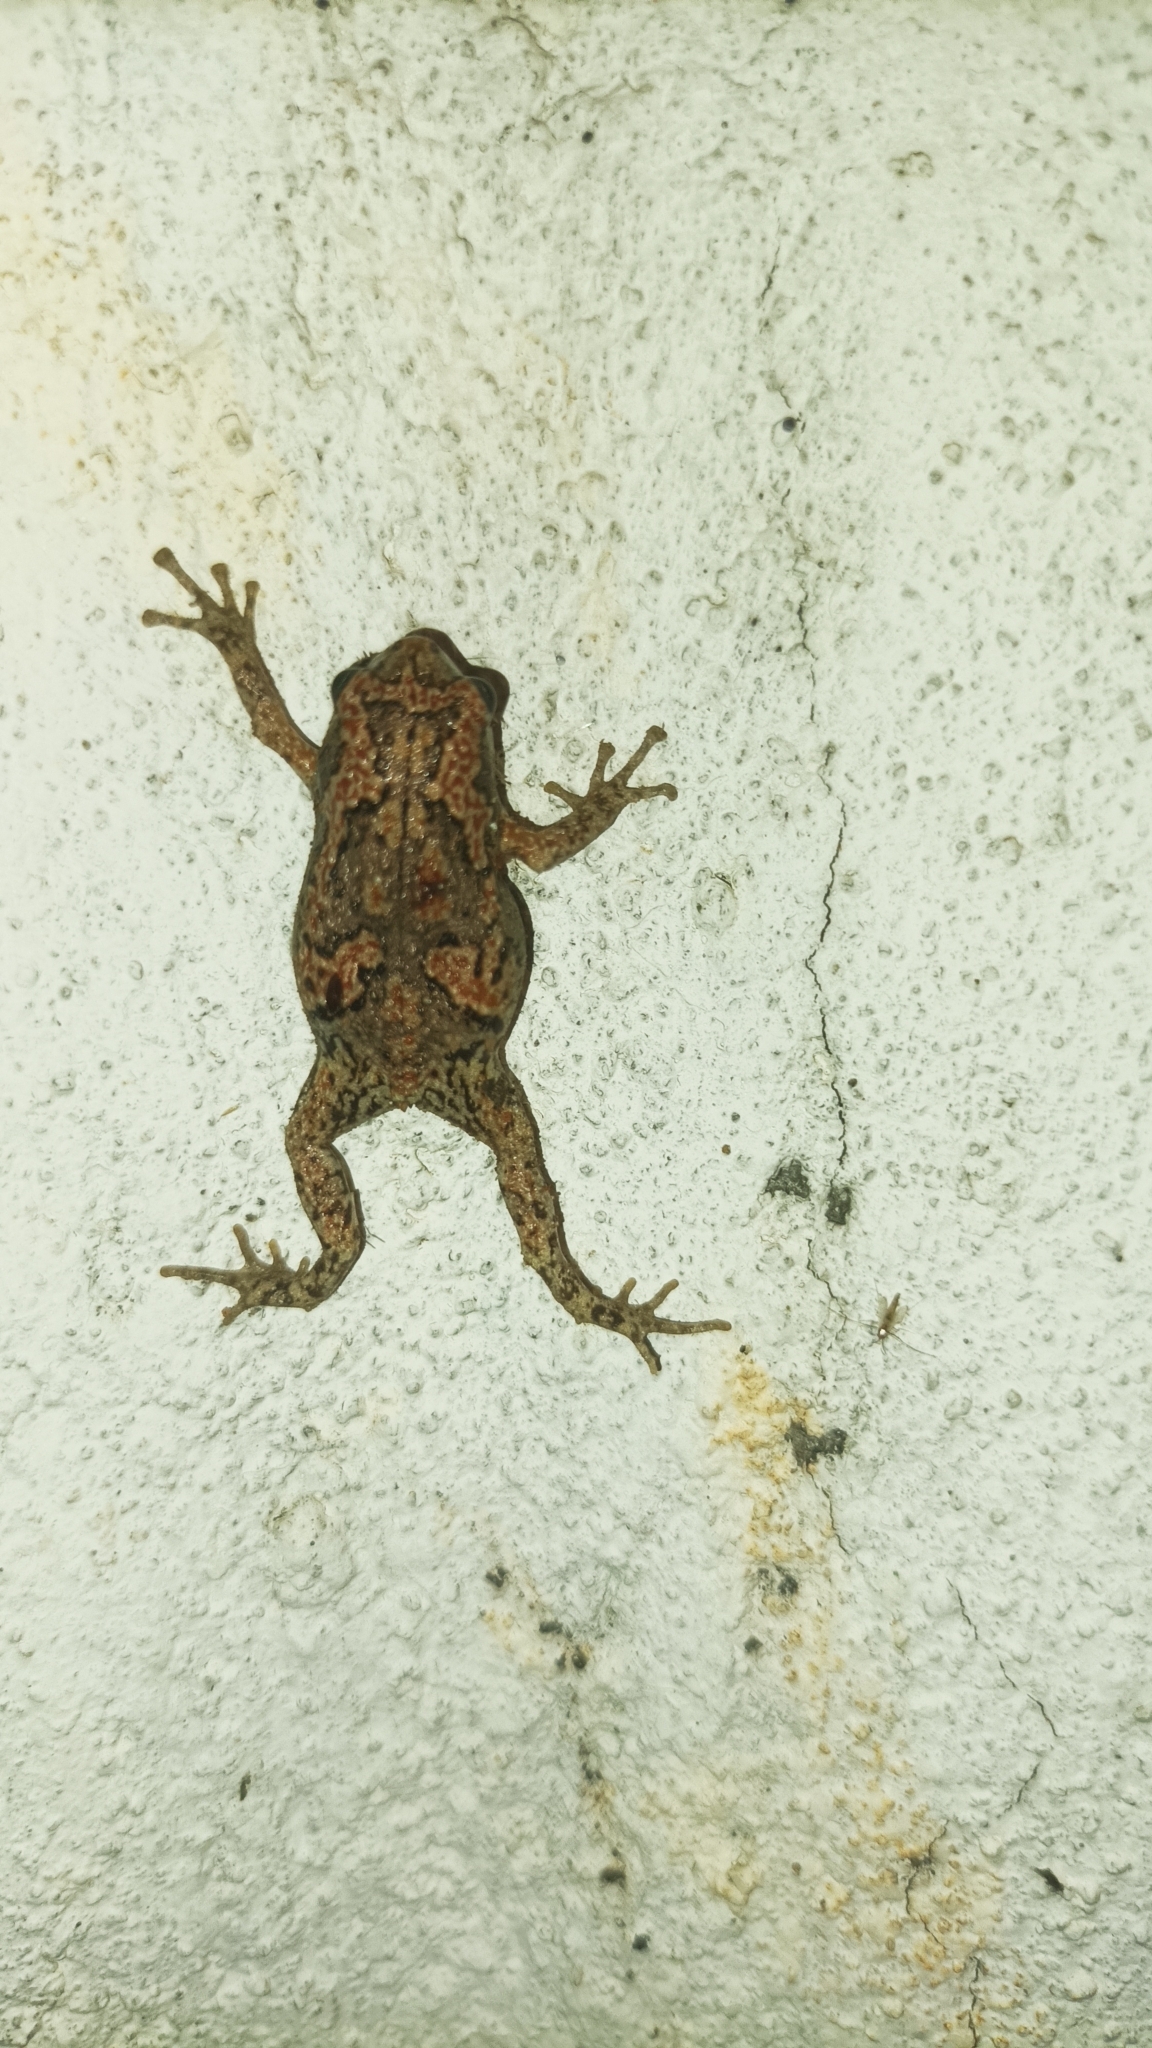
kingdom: Animalia
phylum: Chordata
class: Amphibia
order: Anura
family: Microhylidae
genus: Uperodon
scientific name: Uperodon taprobanicus
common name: Ceylon kaloula
